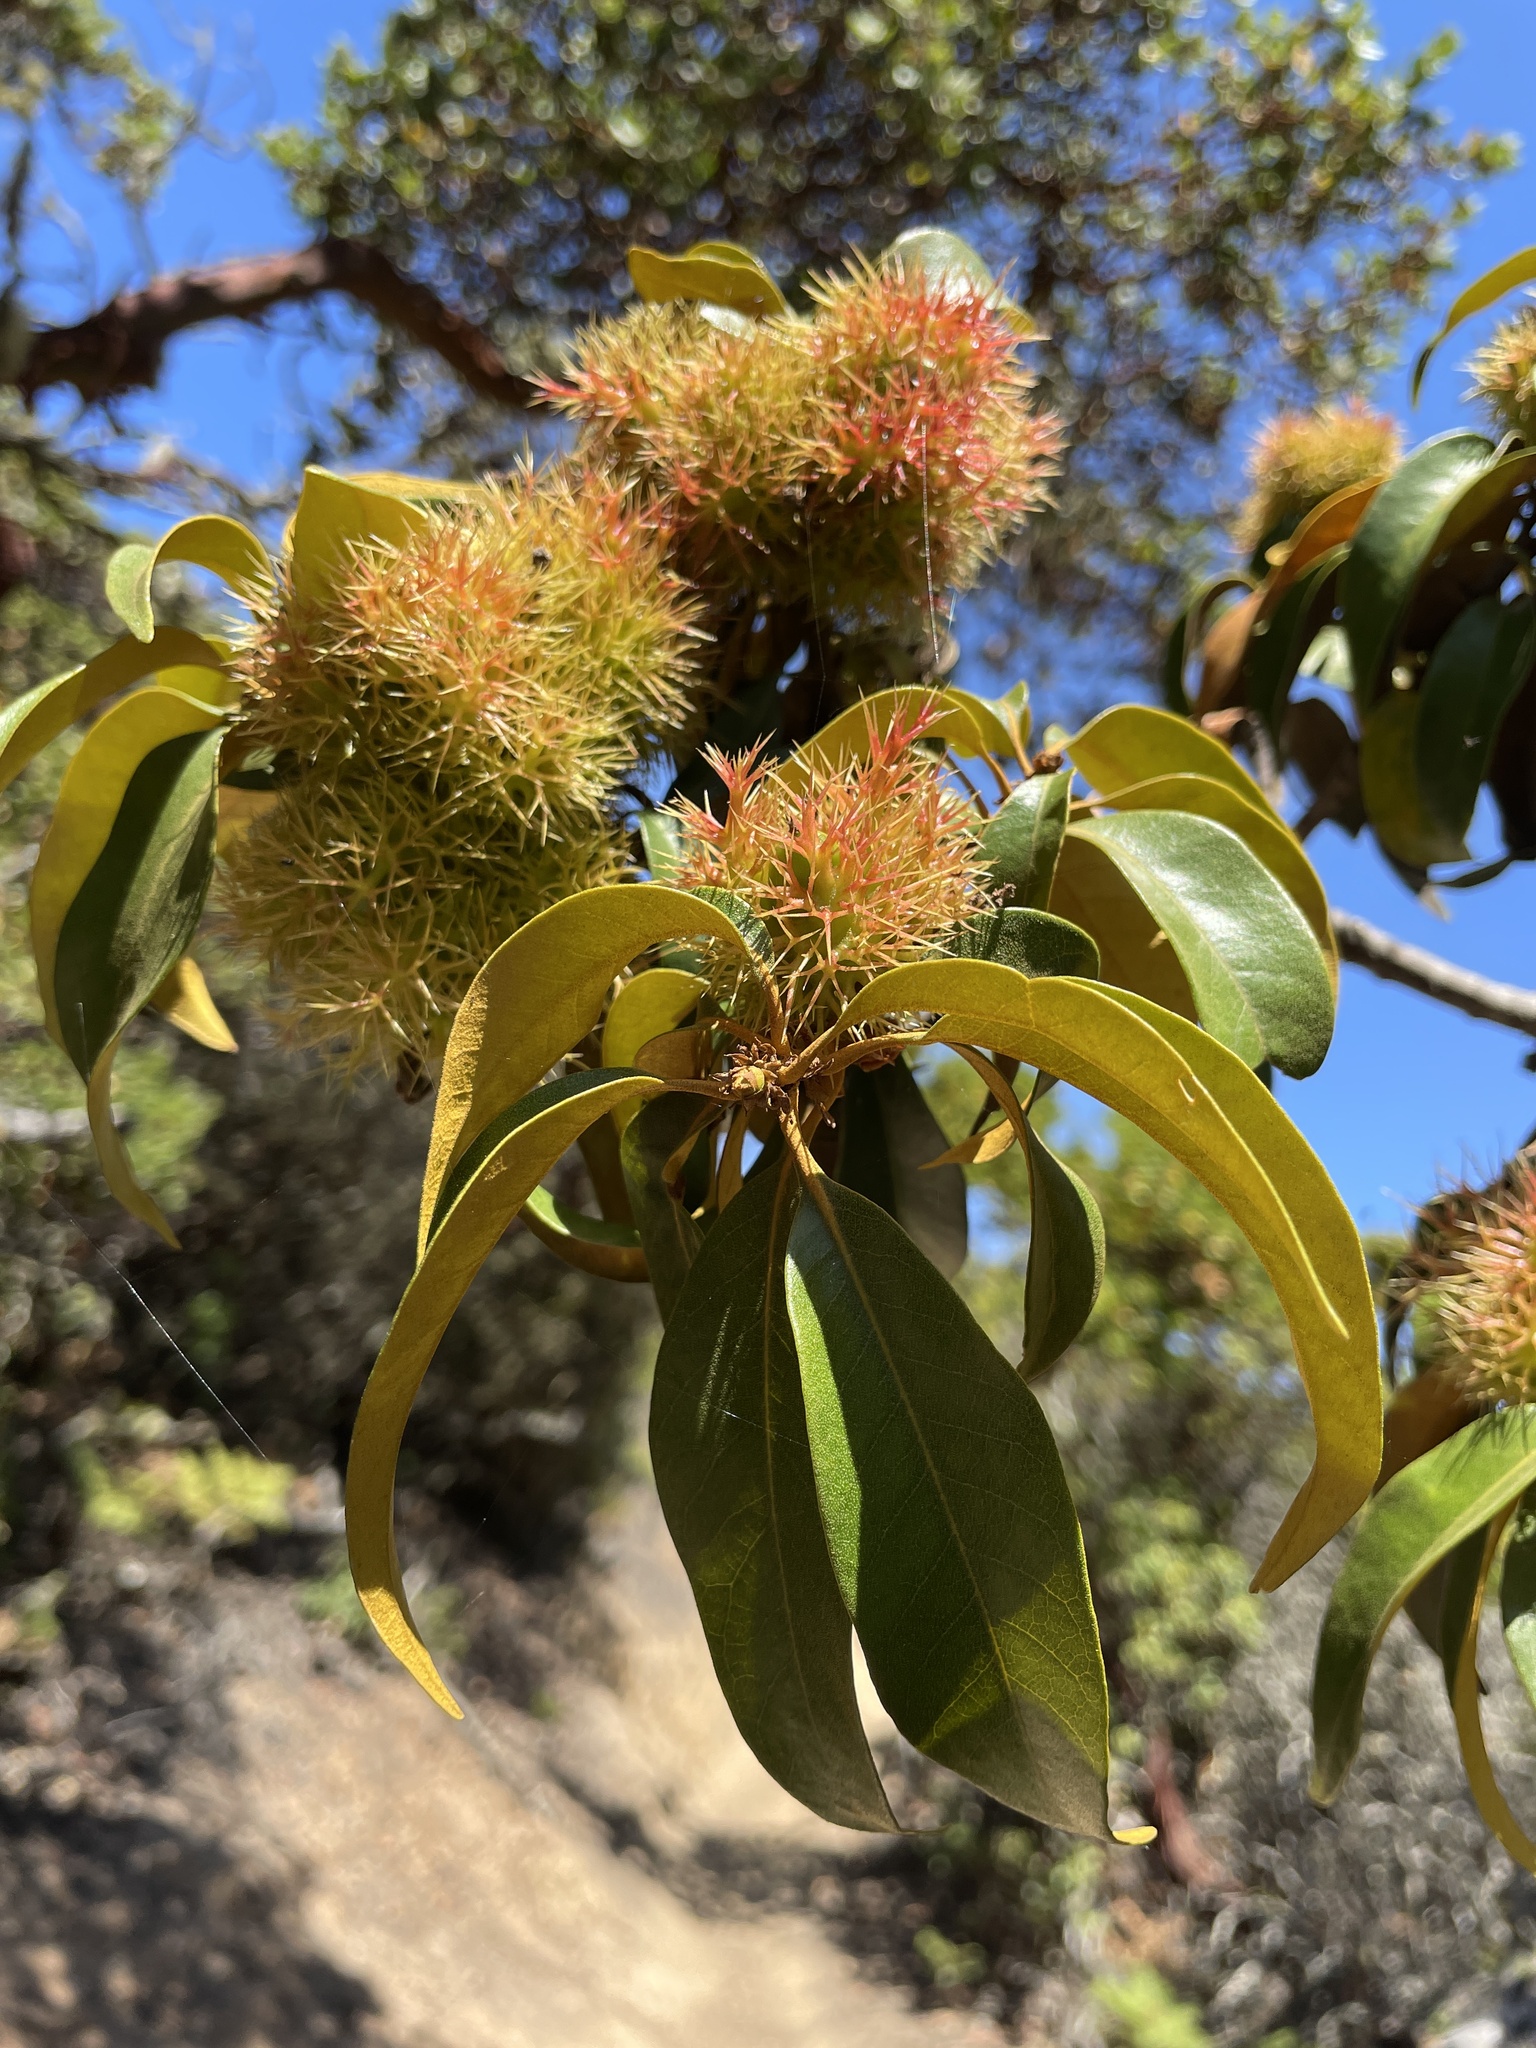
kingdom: Plantae
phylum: Tracheophyta
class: Magnoliopsida
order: Fagales
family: Fagaceae
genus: Chrysolepis
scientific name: Chrysolepis chrysophylla
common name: Giant chinquapin
